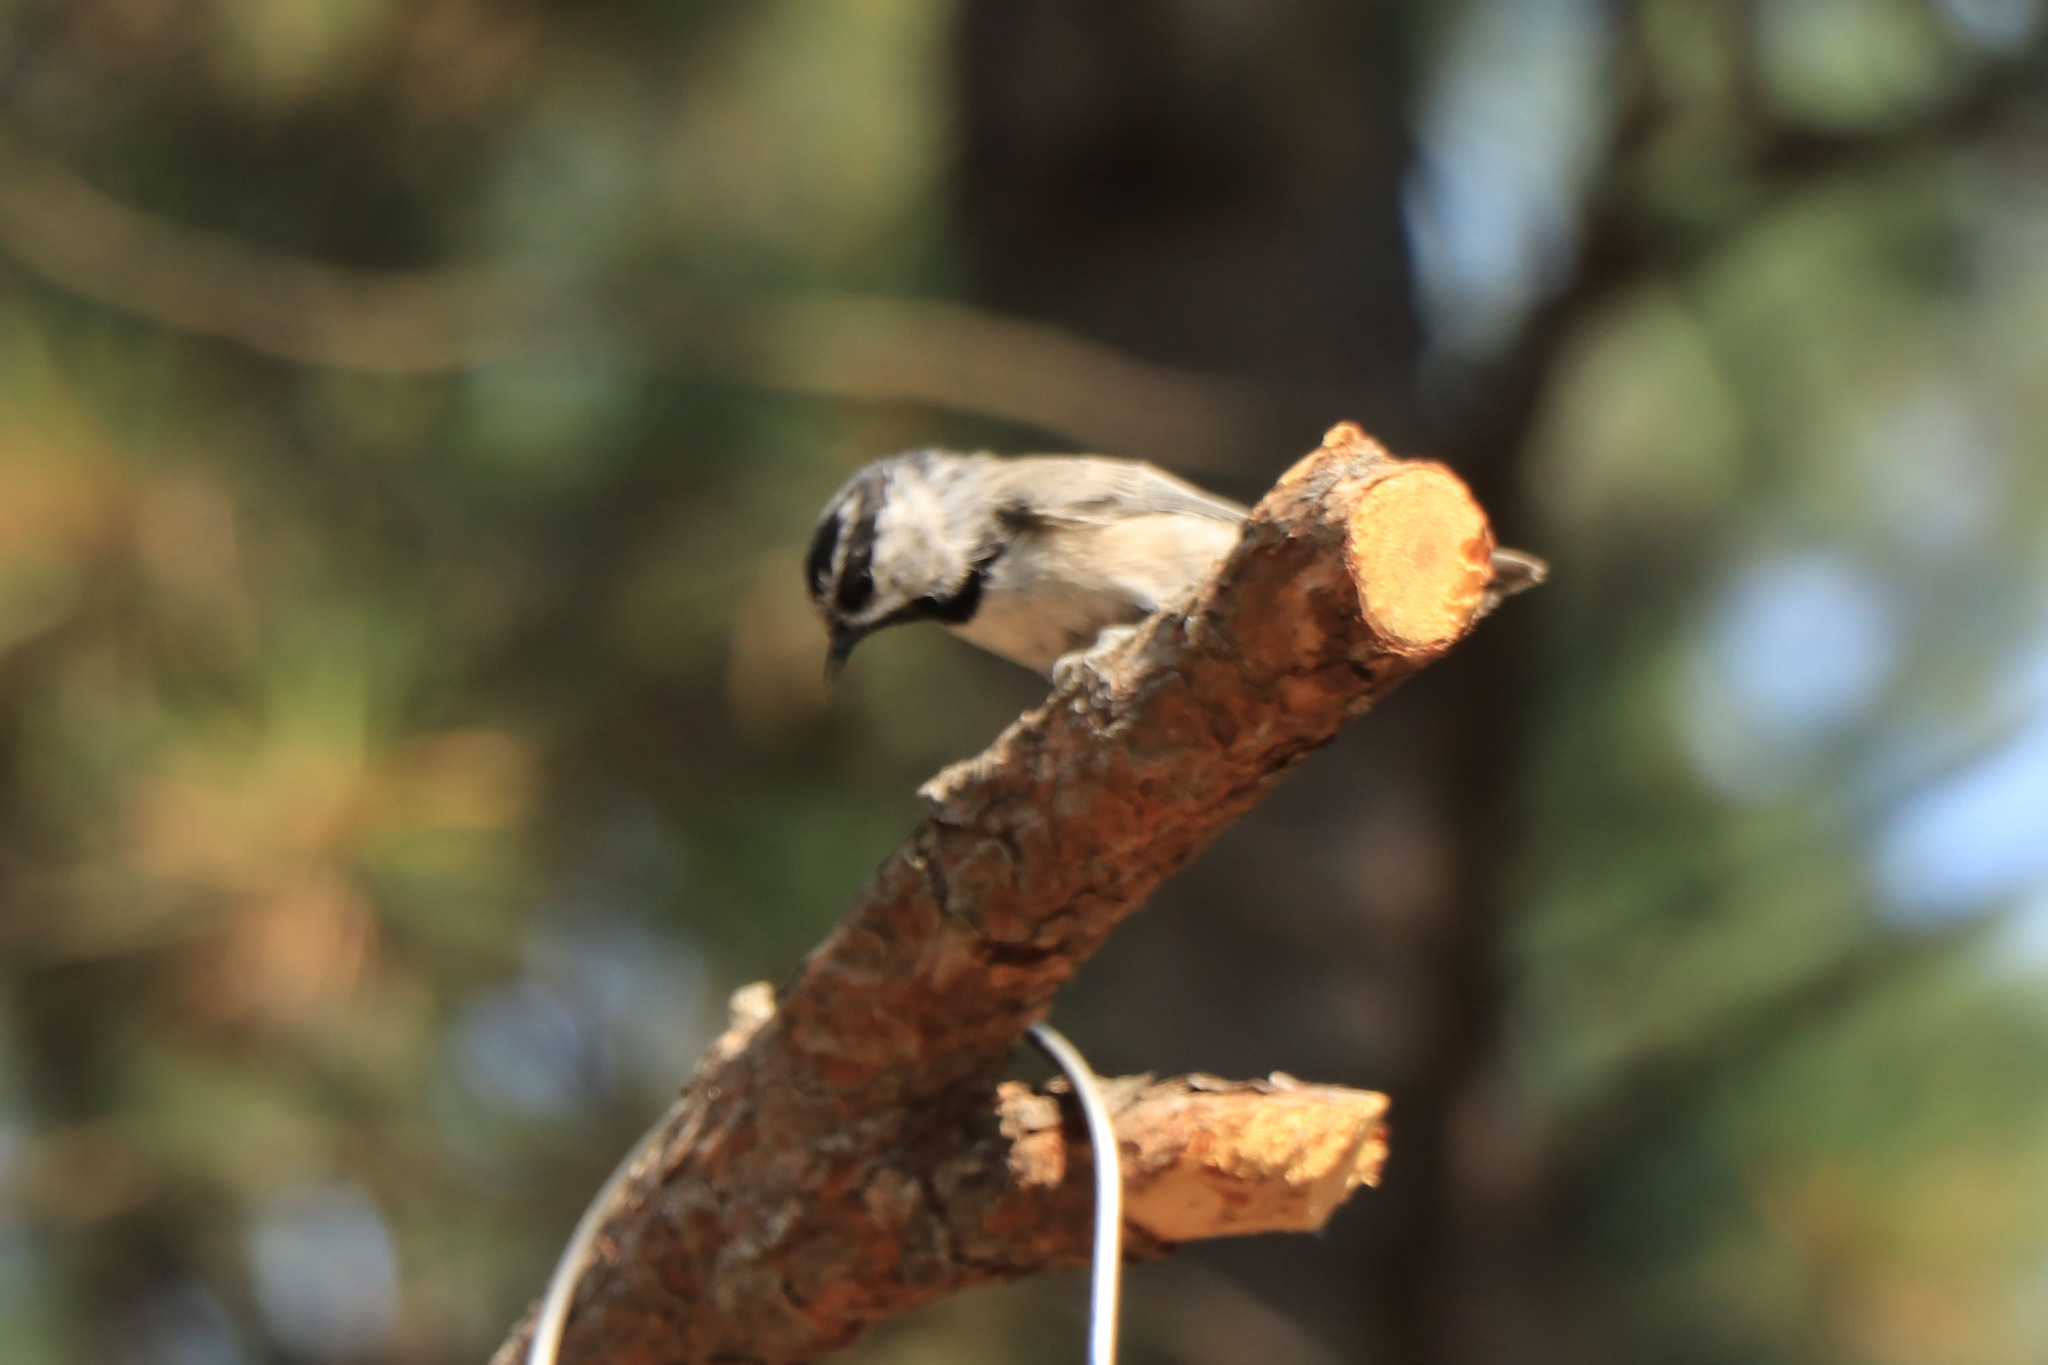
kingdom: Animalia
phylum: Chordata
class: Aves
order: Passeriformes
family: Paridae
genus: Poecile
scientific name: Poecile gambeli
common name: Mountain chickadee
